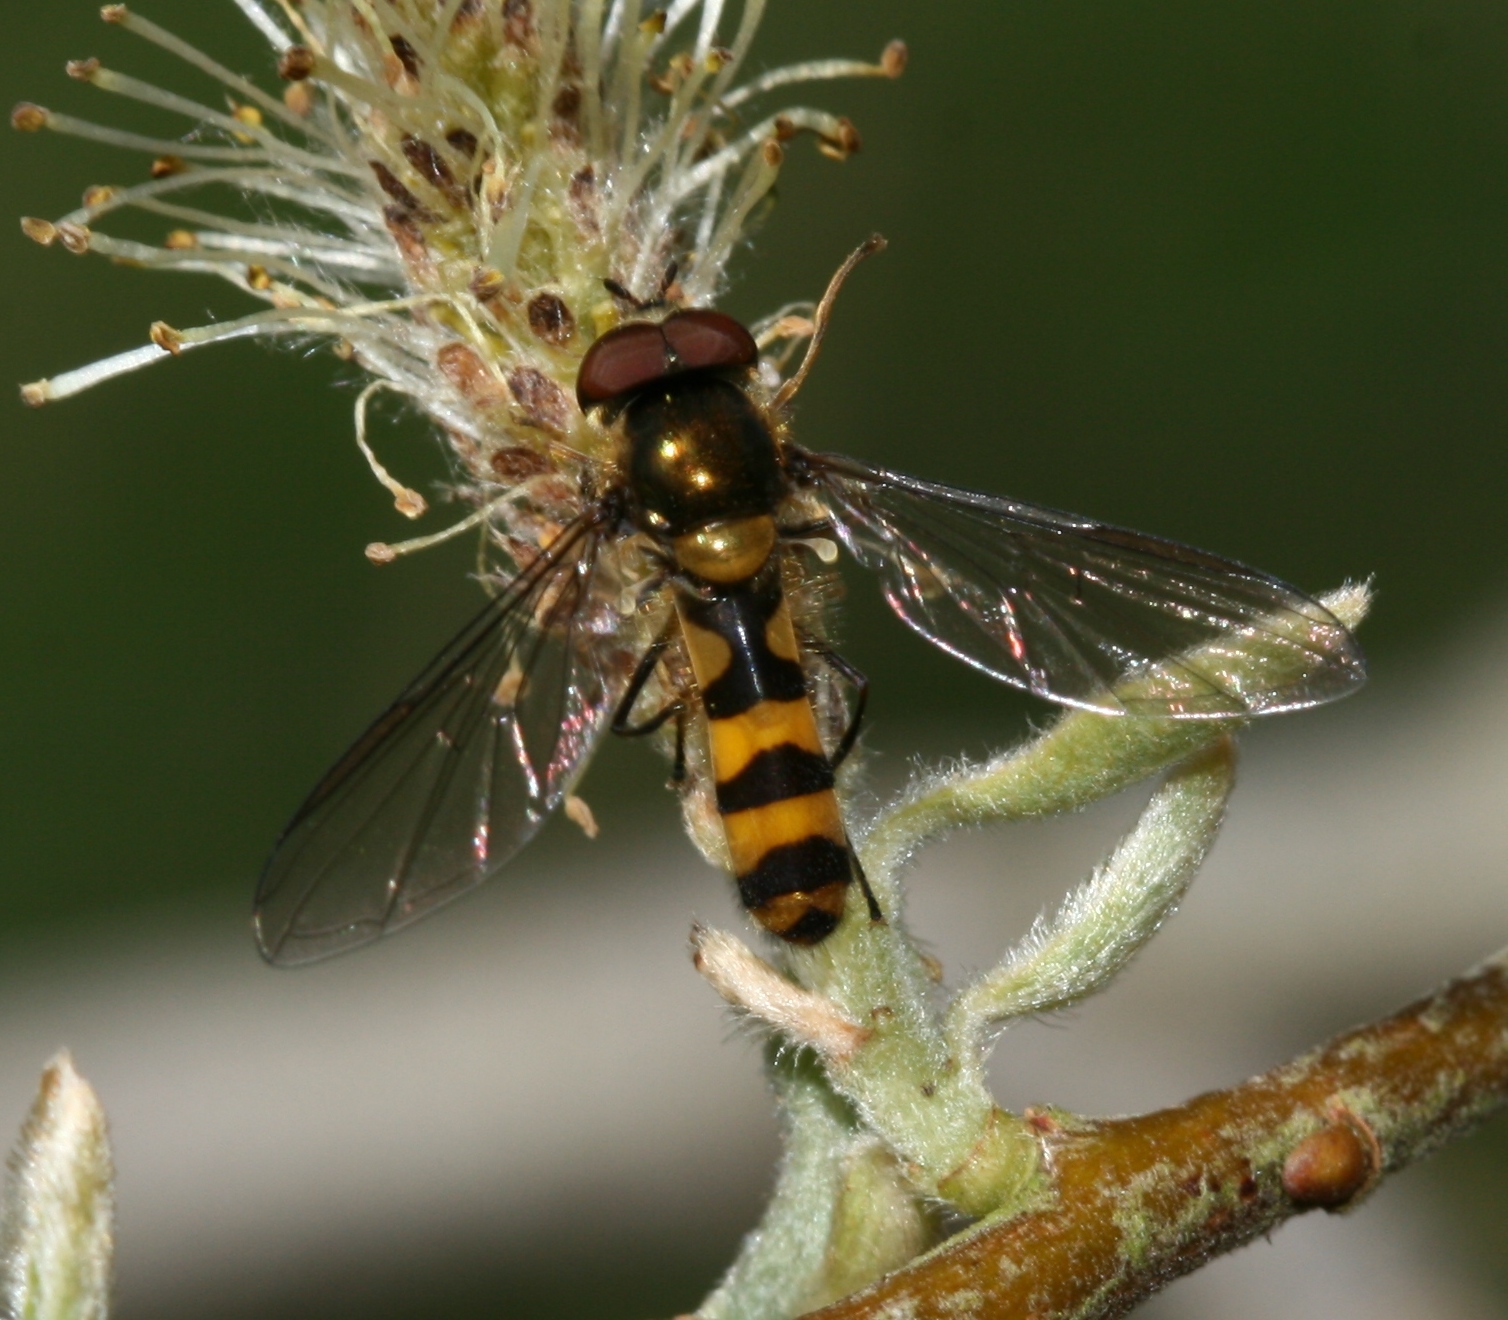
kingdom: Animalia
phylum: Arthropoda
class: Insecta
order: Diptera
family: Syrphidae
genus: Meliscaeva
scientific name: Meliscaeva cinctella
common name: American thintail fly
